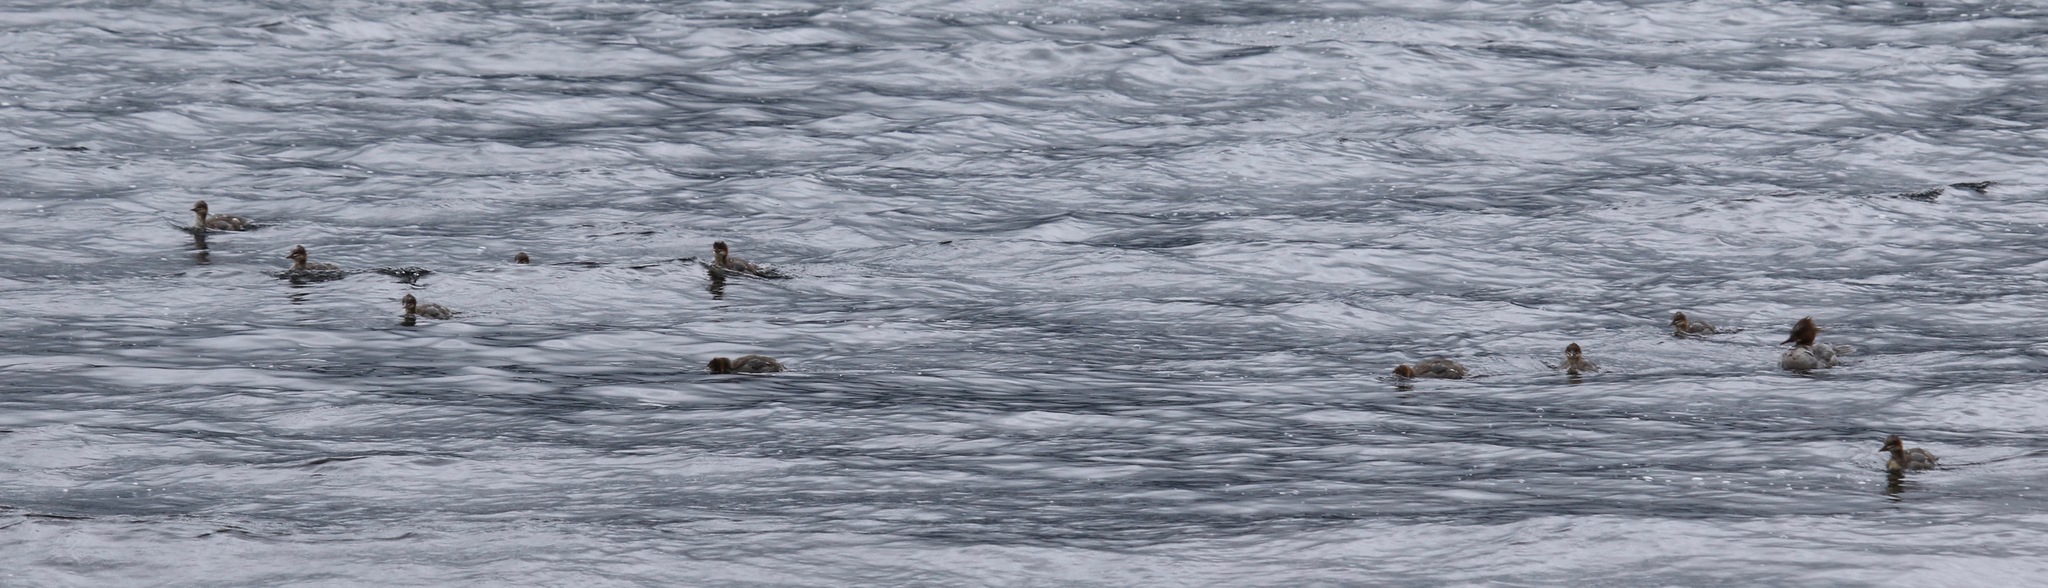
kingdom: Animalia
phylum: Chordata
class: Aves
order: Anseriformes
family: Anatidae
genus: Mergus
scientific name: Mergus serrator
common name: Red-breasted merganser
